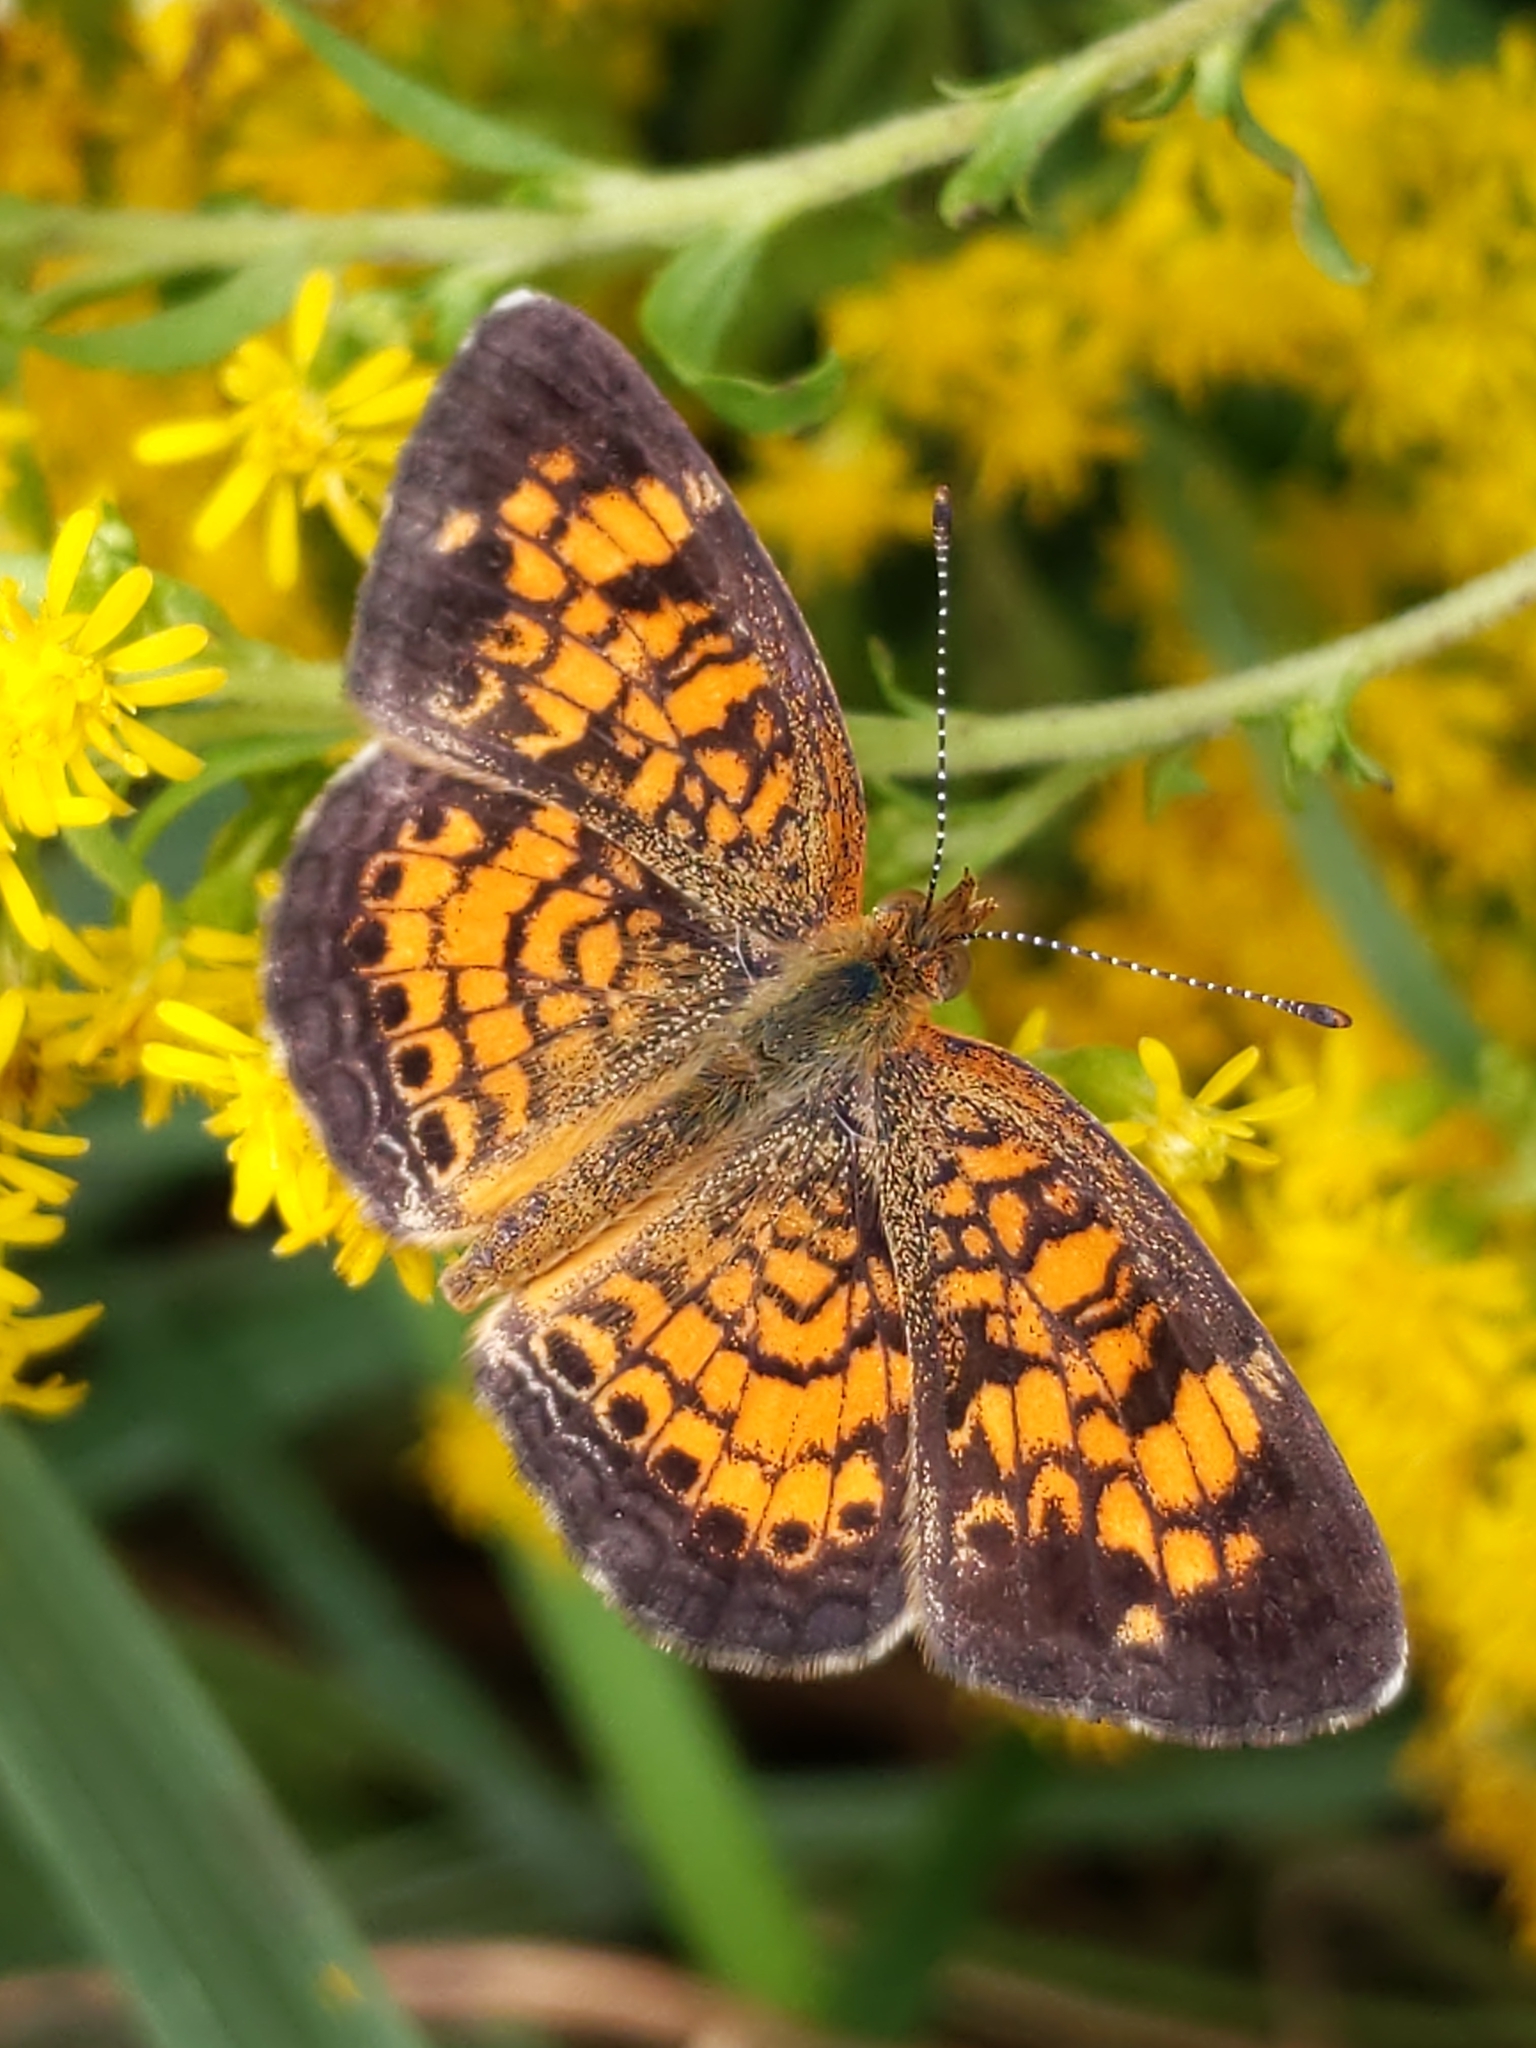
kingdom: Animalia
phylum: Arthropoda
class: Insecta
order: Lepidoptera
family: Nymphalidae
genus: Phyciodes
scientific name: Phyciodes tharos
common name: Pearl crescent
